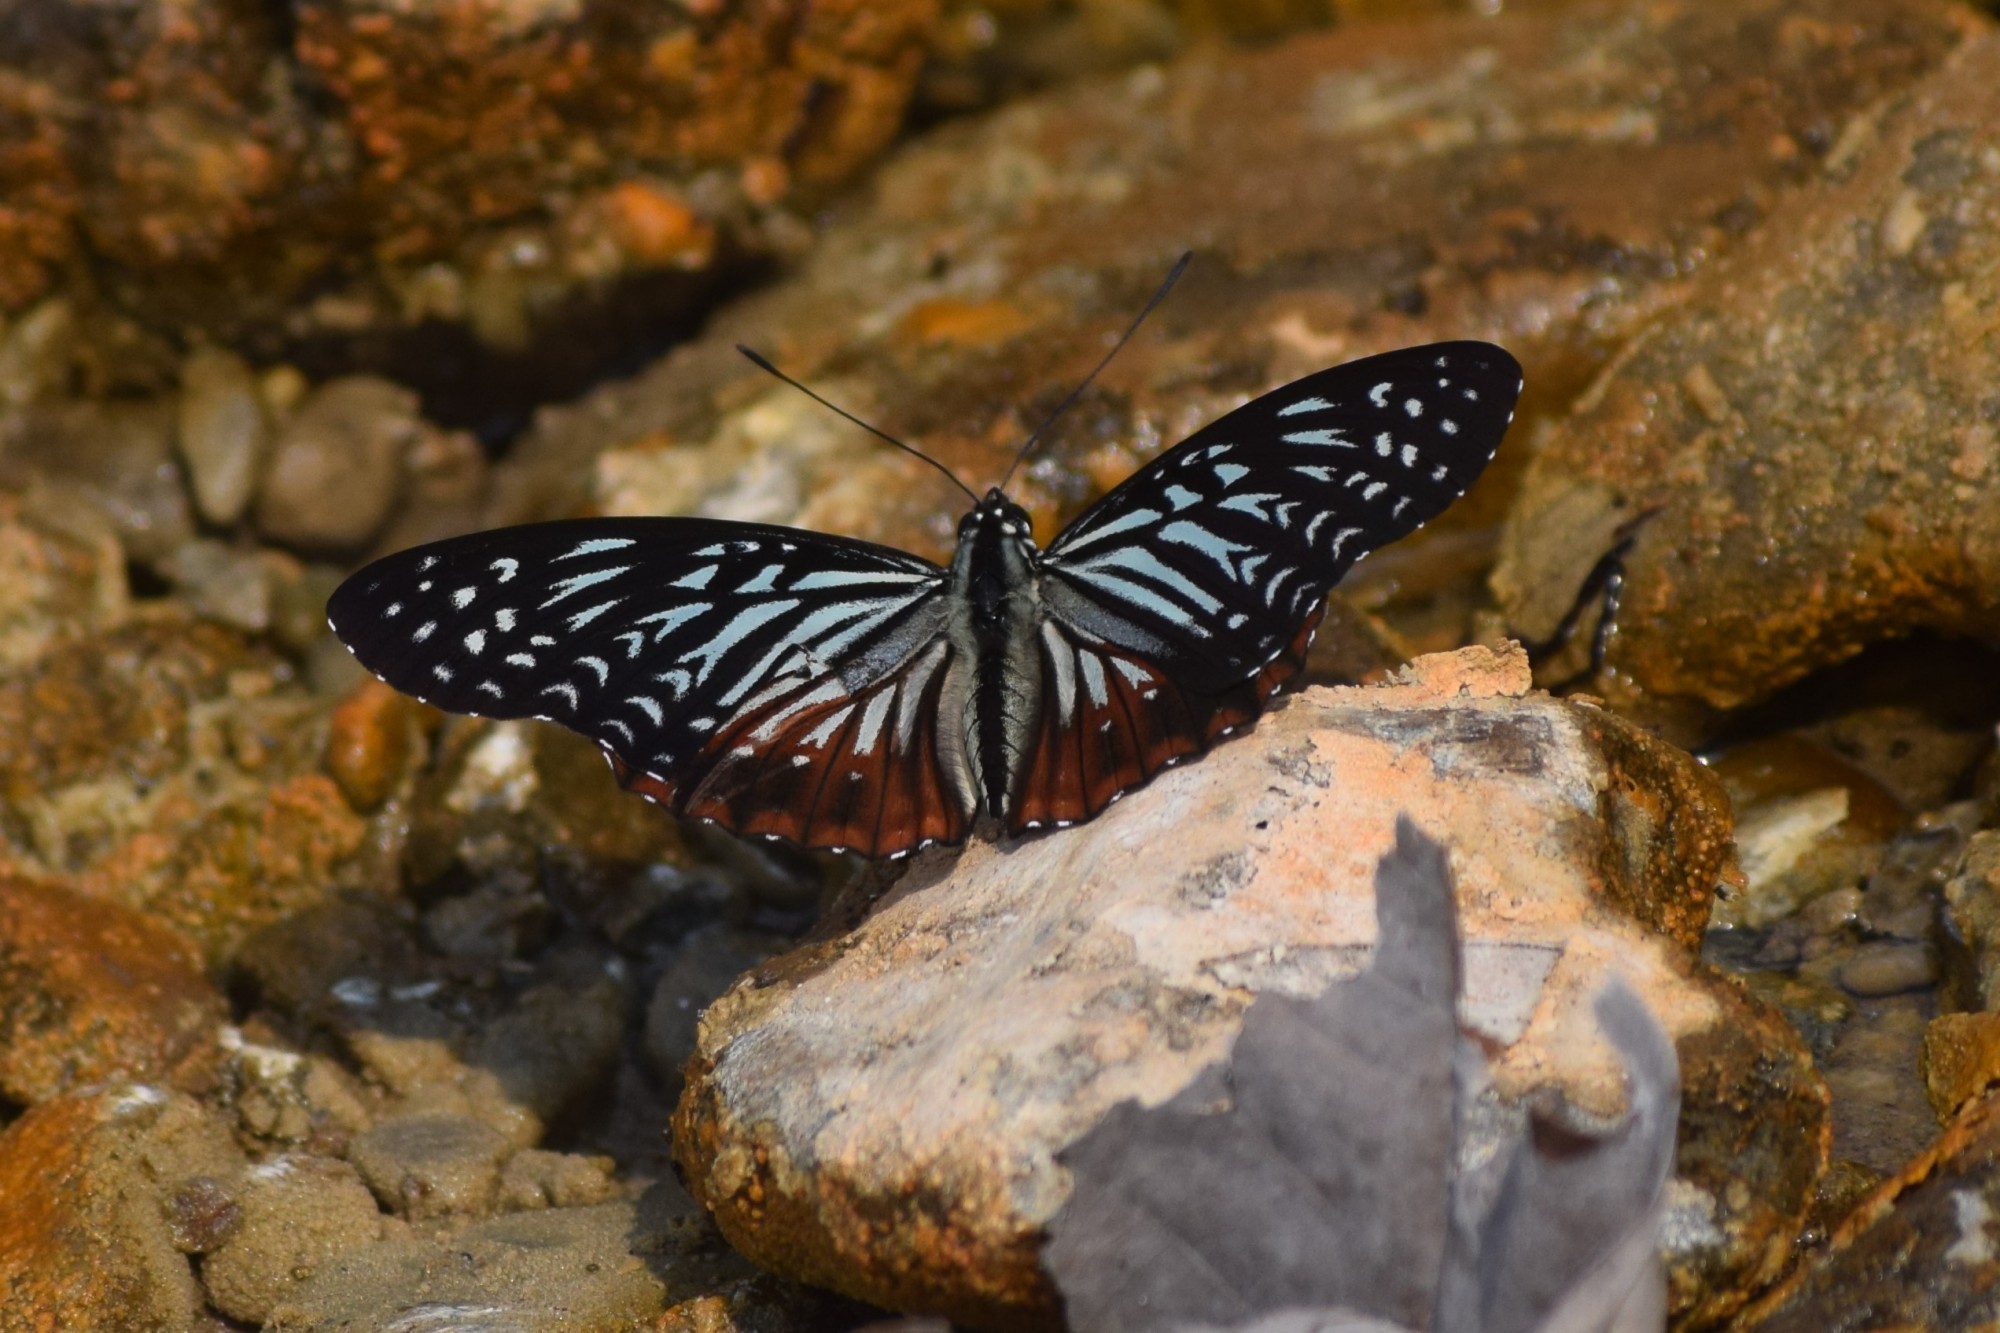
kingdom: Animalia
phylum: Arthropoda
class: Insecta
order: Lepidoptera
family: Nymphalidae
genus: Hestinalis
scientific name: Hestinalis nama
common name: Circe
